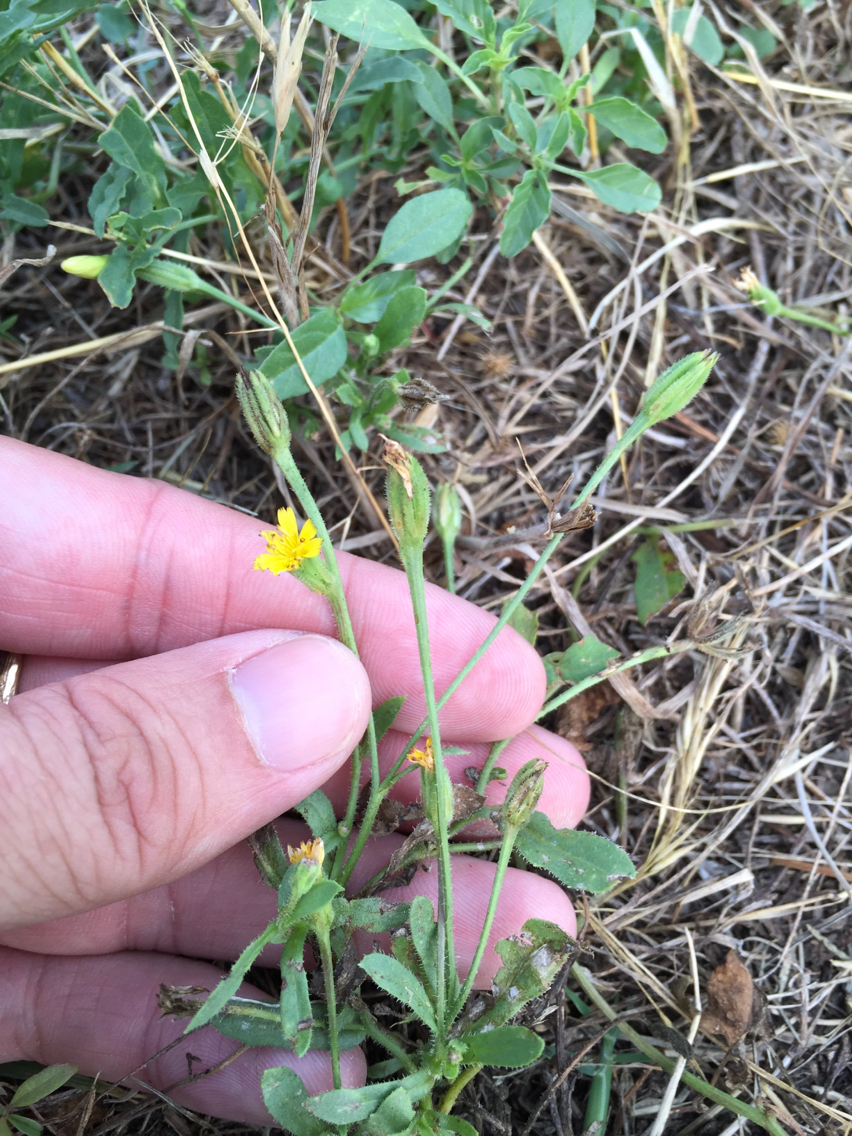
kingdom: Plantae
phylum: Tracheophyta
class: Magnoliopsida
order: Asterales
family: Asteraceae
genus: Hedypnois
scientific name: Hedypnois rhagadioloides
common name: Cretan weed
